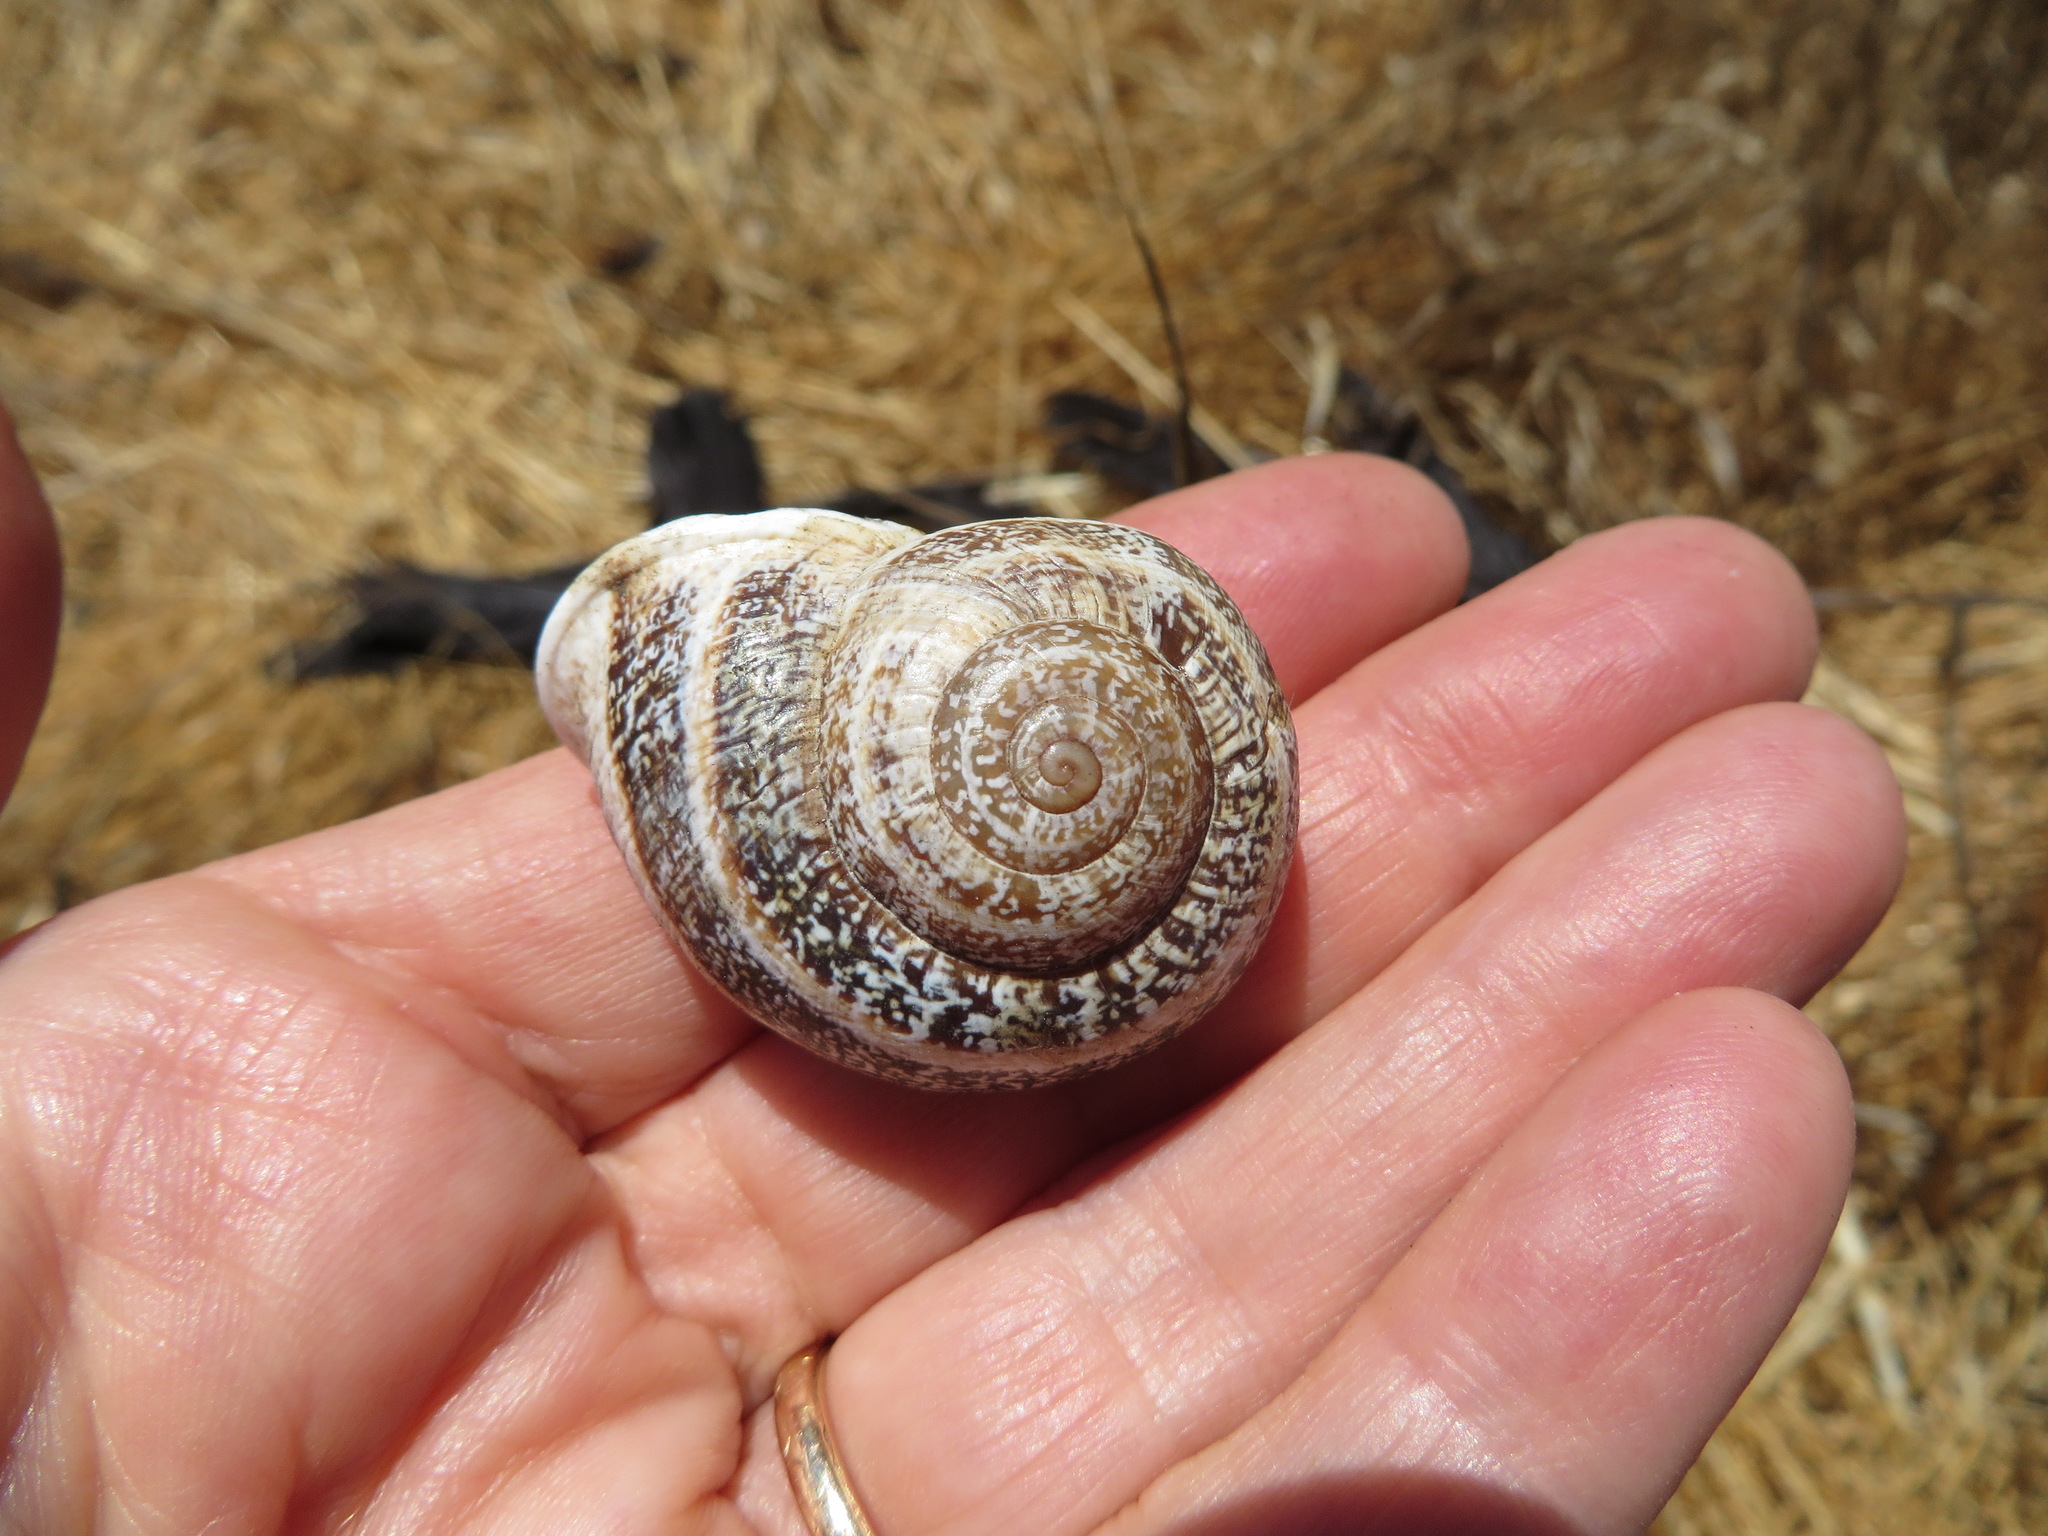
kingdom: Animalia
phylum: Mollusca
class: Gastropoda
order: Stylommatophora
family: Helicidae
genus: Otala
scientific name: Otala lactea
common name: Milk snail
